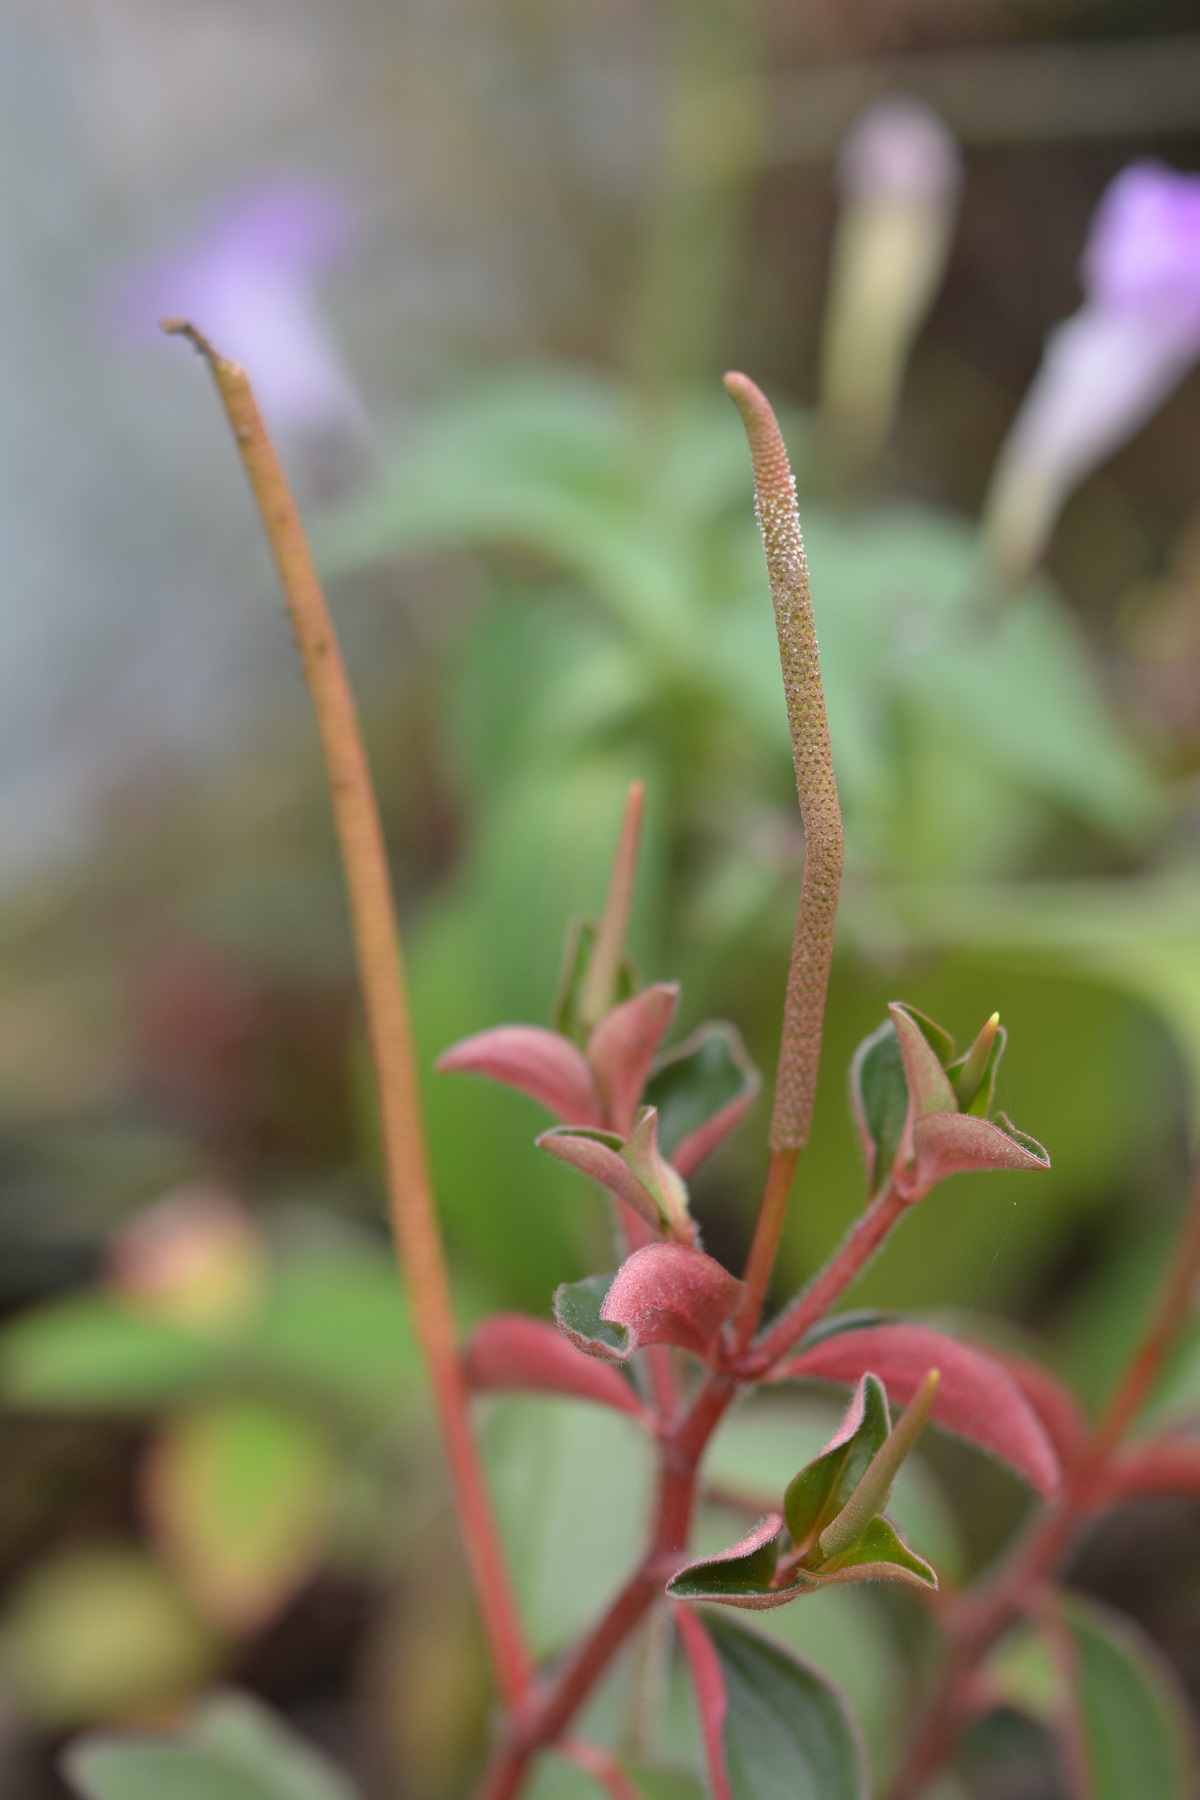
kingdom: Plantae
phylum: Tracheophyta
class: Magnoliopsida
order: Piperales
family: Piperaceae
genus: Peperomia
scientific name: Peperomia consoquitlana
